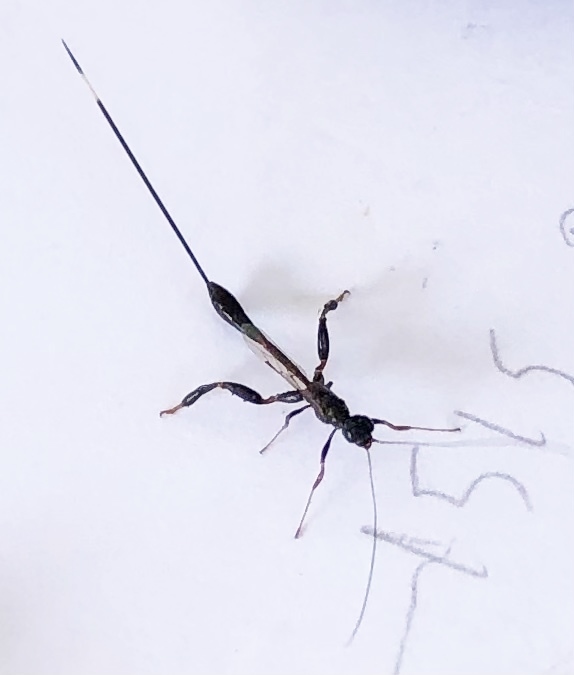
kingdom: Animalia
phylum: Arthropoda
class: Insecta
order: Hymenoptera
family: Stephanidae
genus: Megischus
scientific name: Megischus
